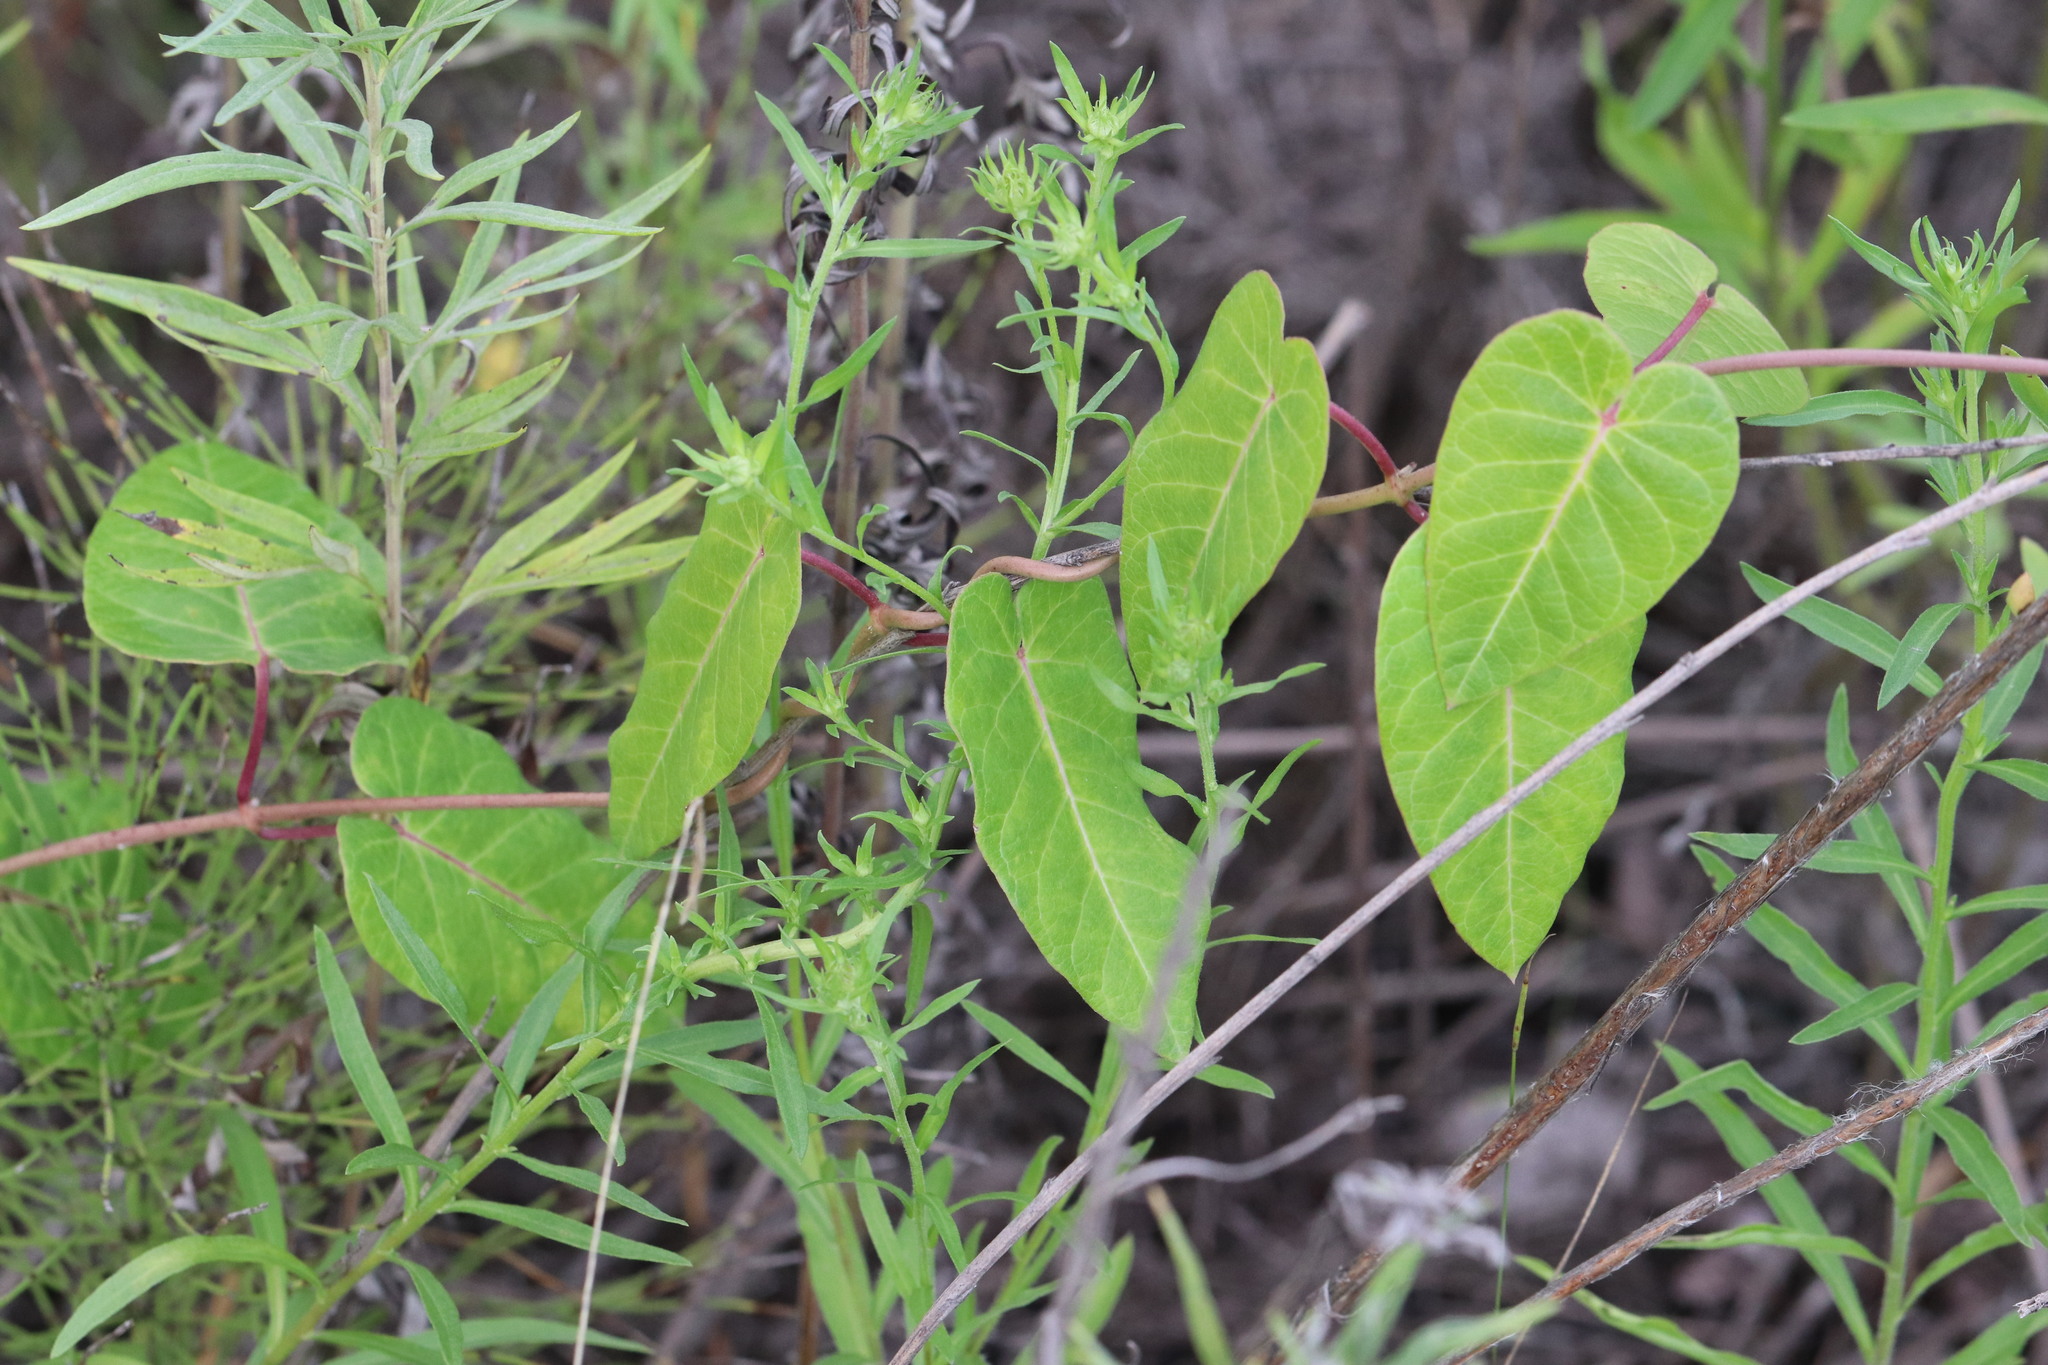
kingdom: Plantae
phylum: Tracheophyta
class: Magnoliopsida
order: Gentianales
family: Apocynaceae
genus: Cynanchum
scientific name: Cynanchum rostellatum
